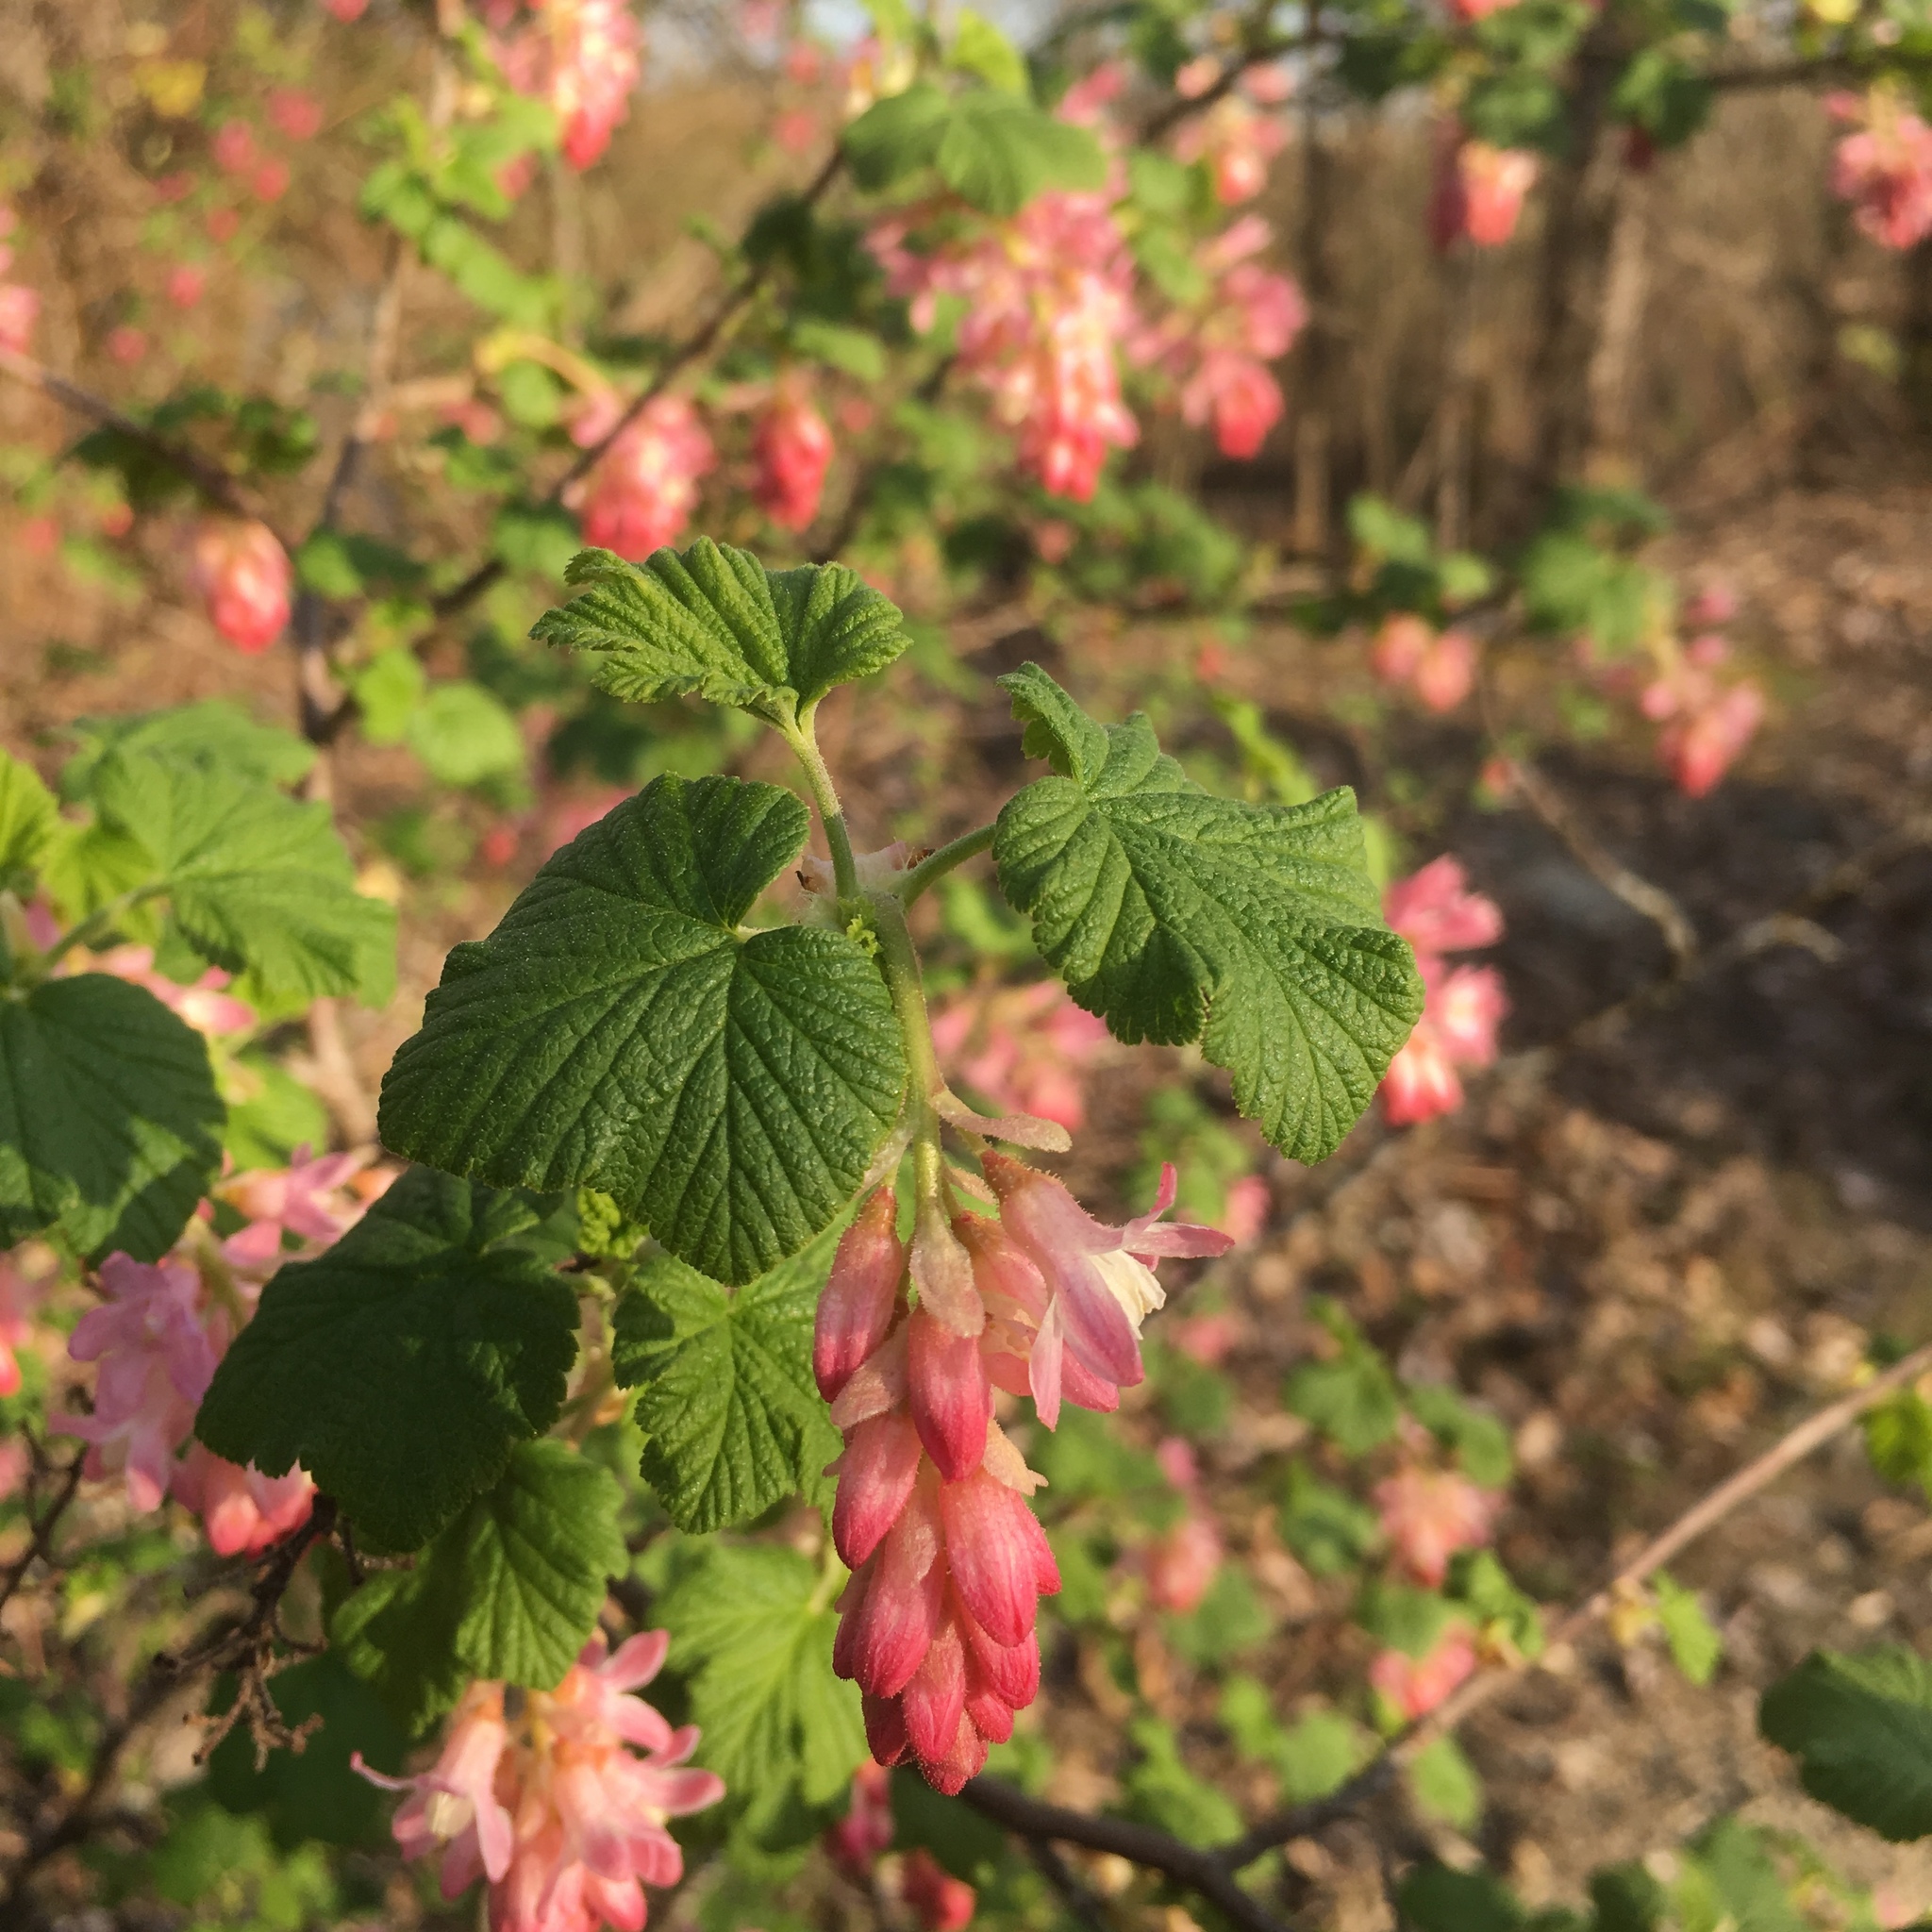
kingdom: Plantae
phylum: Tracheophyta
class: Magnoliopsida
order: Saxifragales
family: Grossulariaceae
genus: Ribes
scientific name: Ribes sanguineum
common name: Flowering currant
